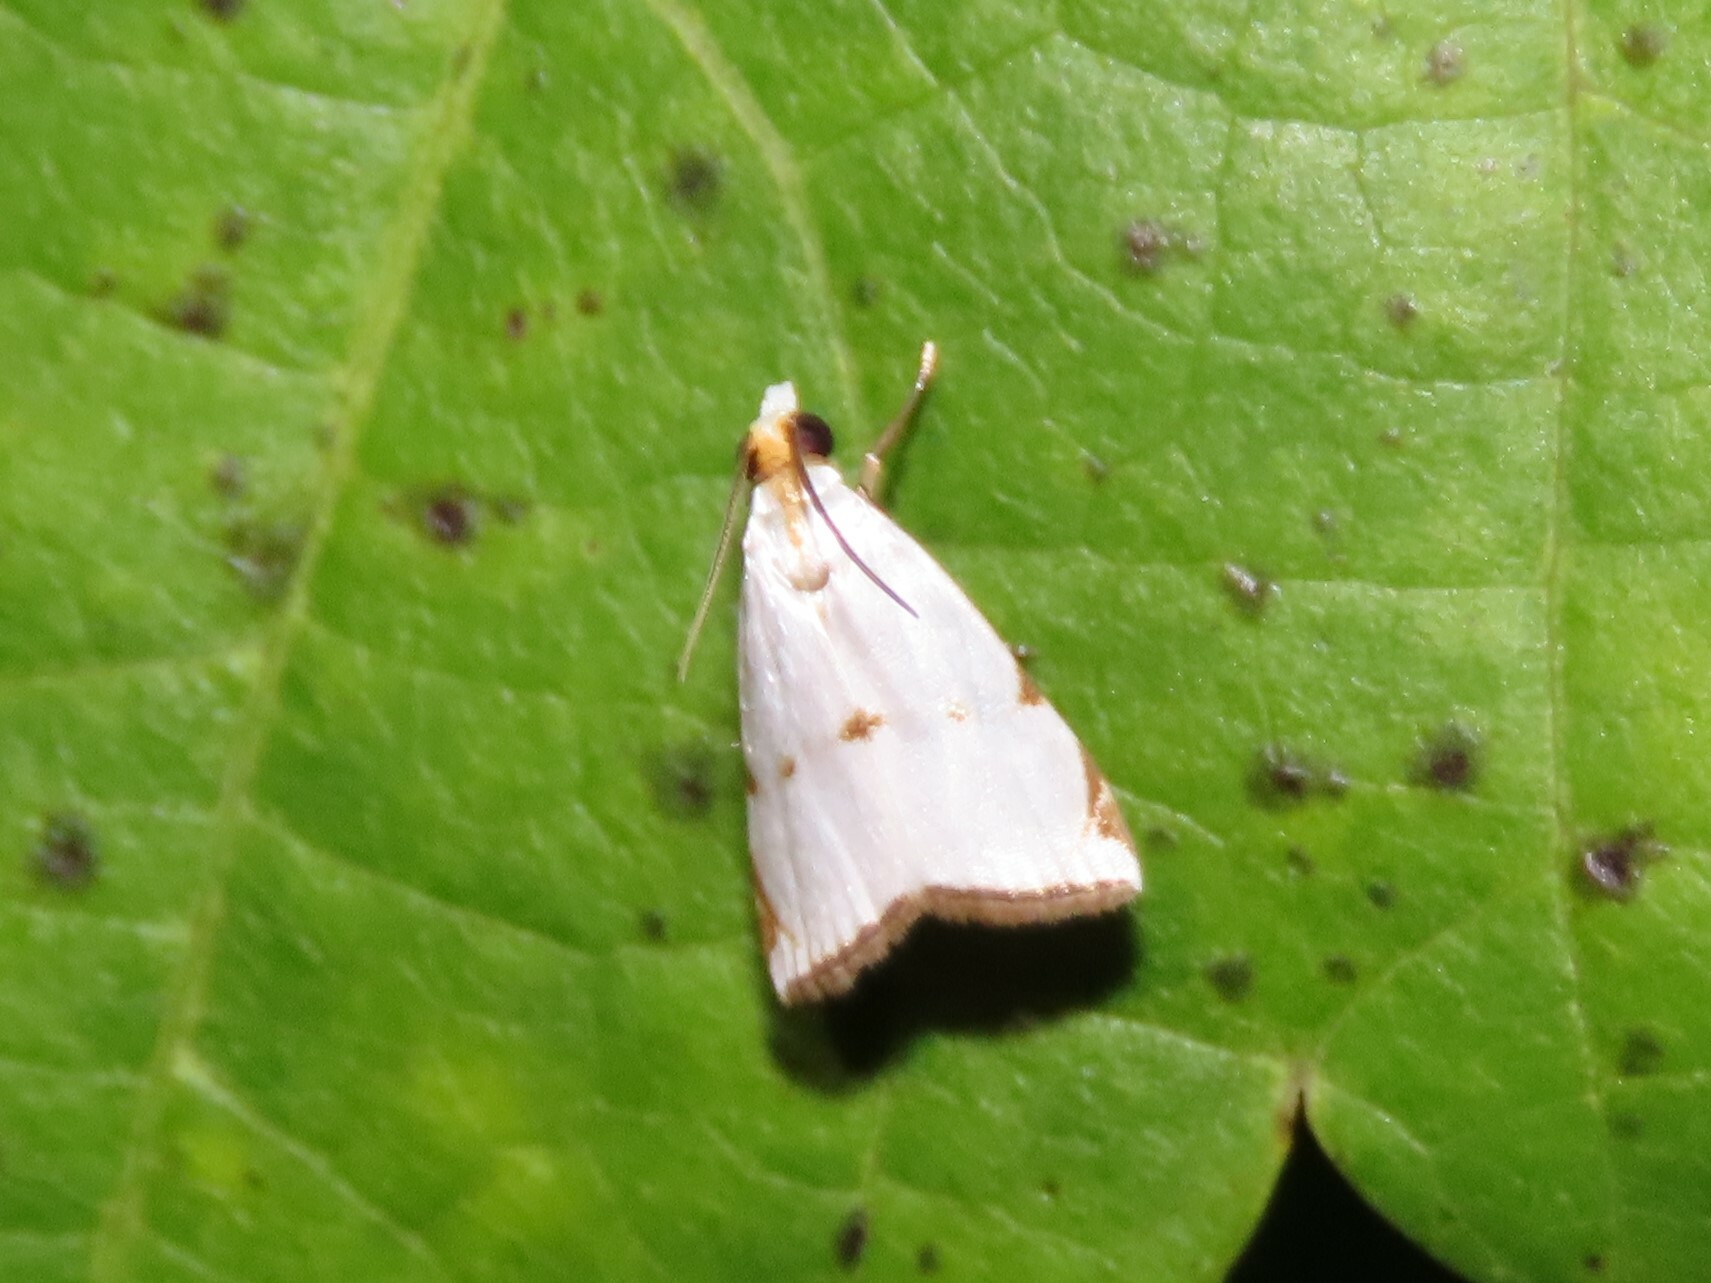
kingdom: Animalia
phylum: Arthropoda
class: Insecta
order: Lepidoptera
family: Crambidae
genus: Argyria
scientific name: Argyria lacteella
